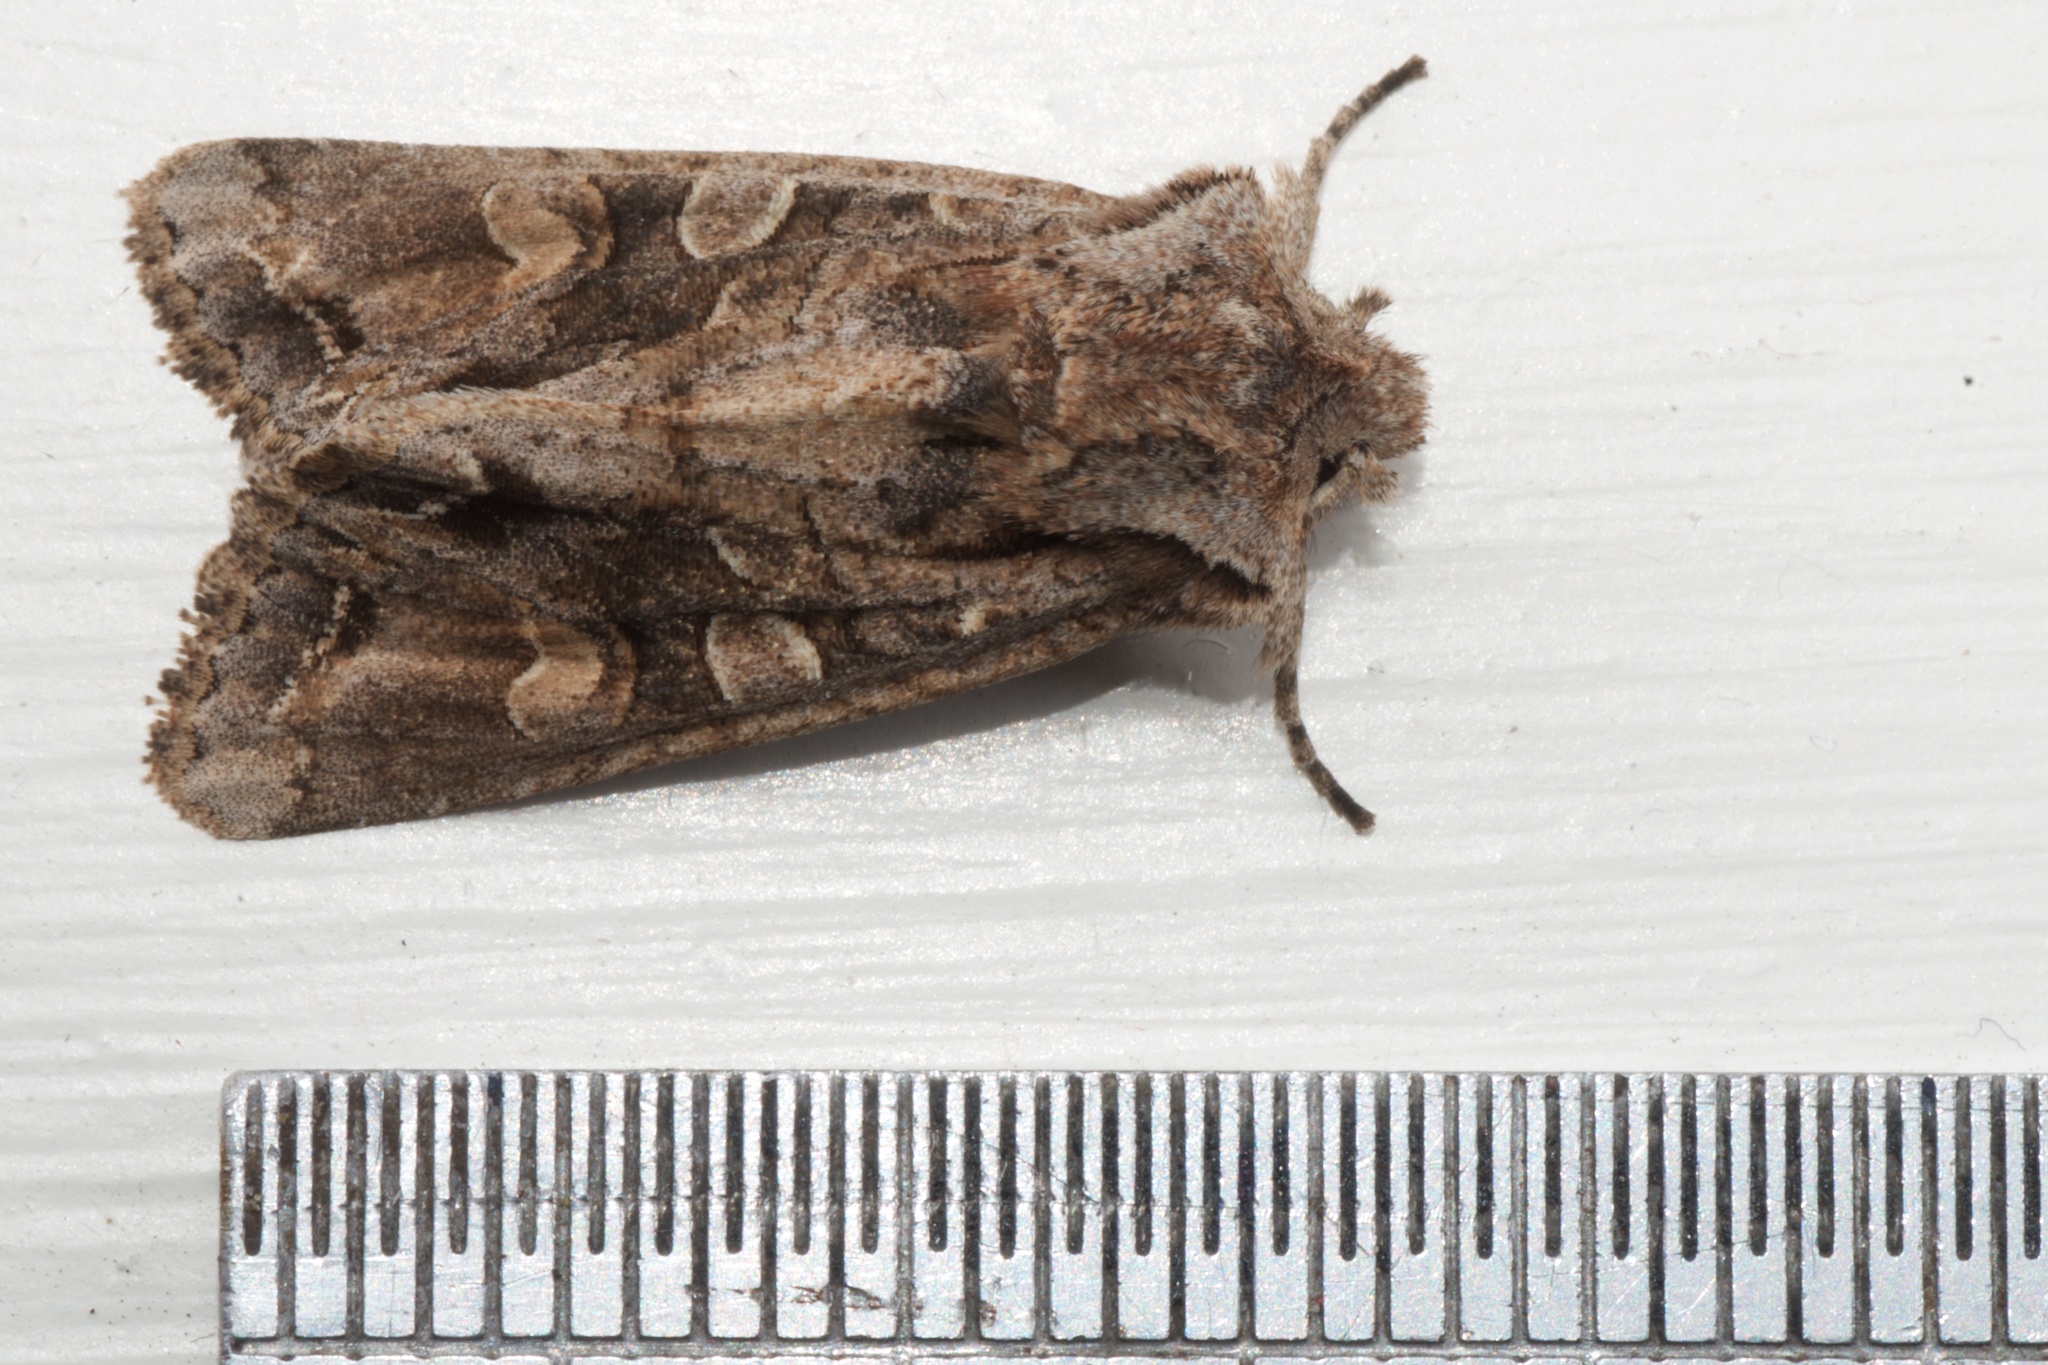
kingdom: Animalia
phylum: Arthropoda
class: Insecta
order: Lepidoptera
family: Noctuidae
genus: Ichneutica
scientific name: Ichneutica insignis
